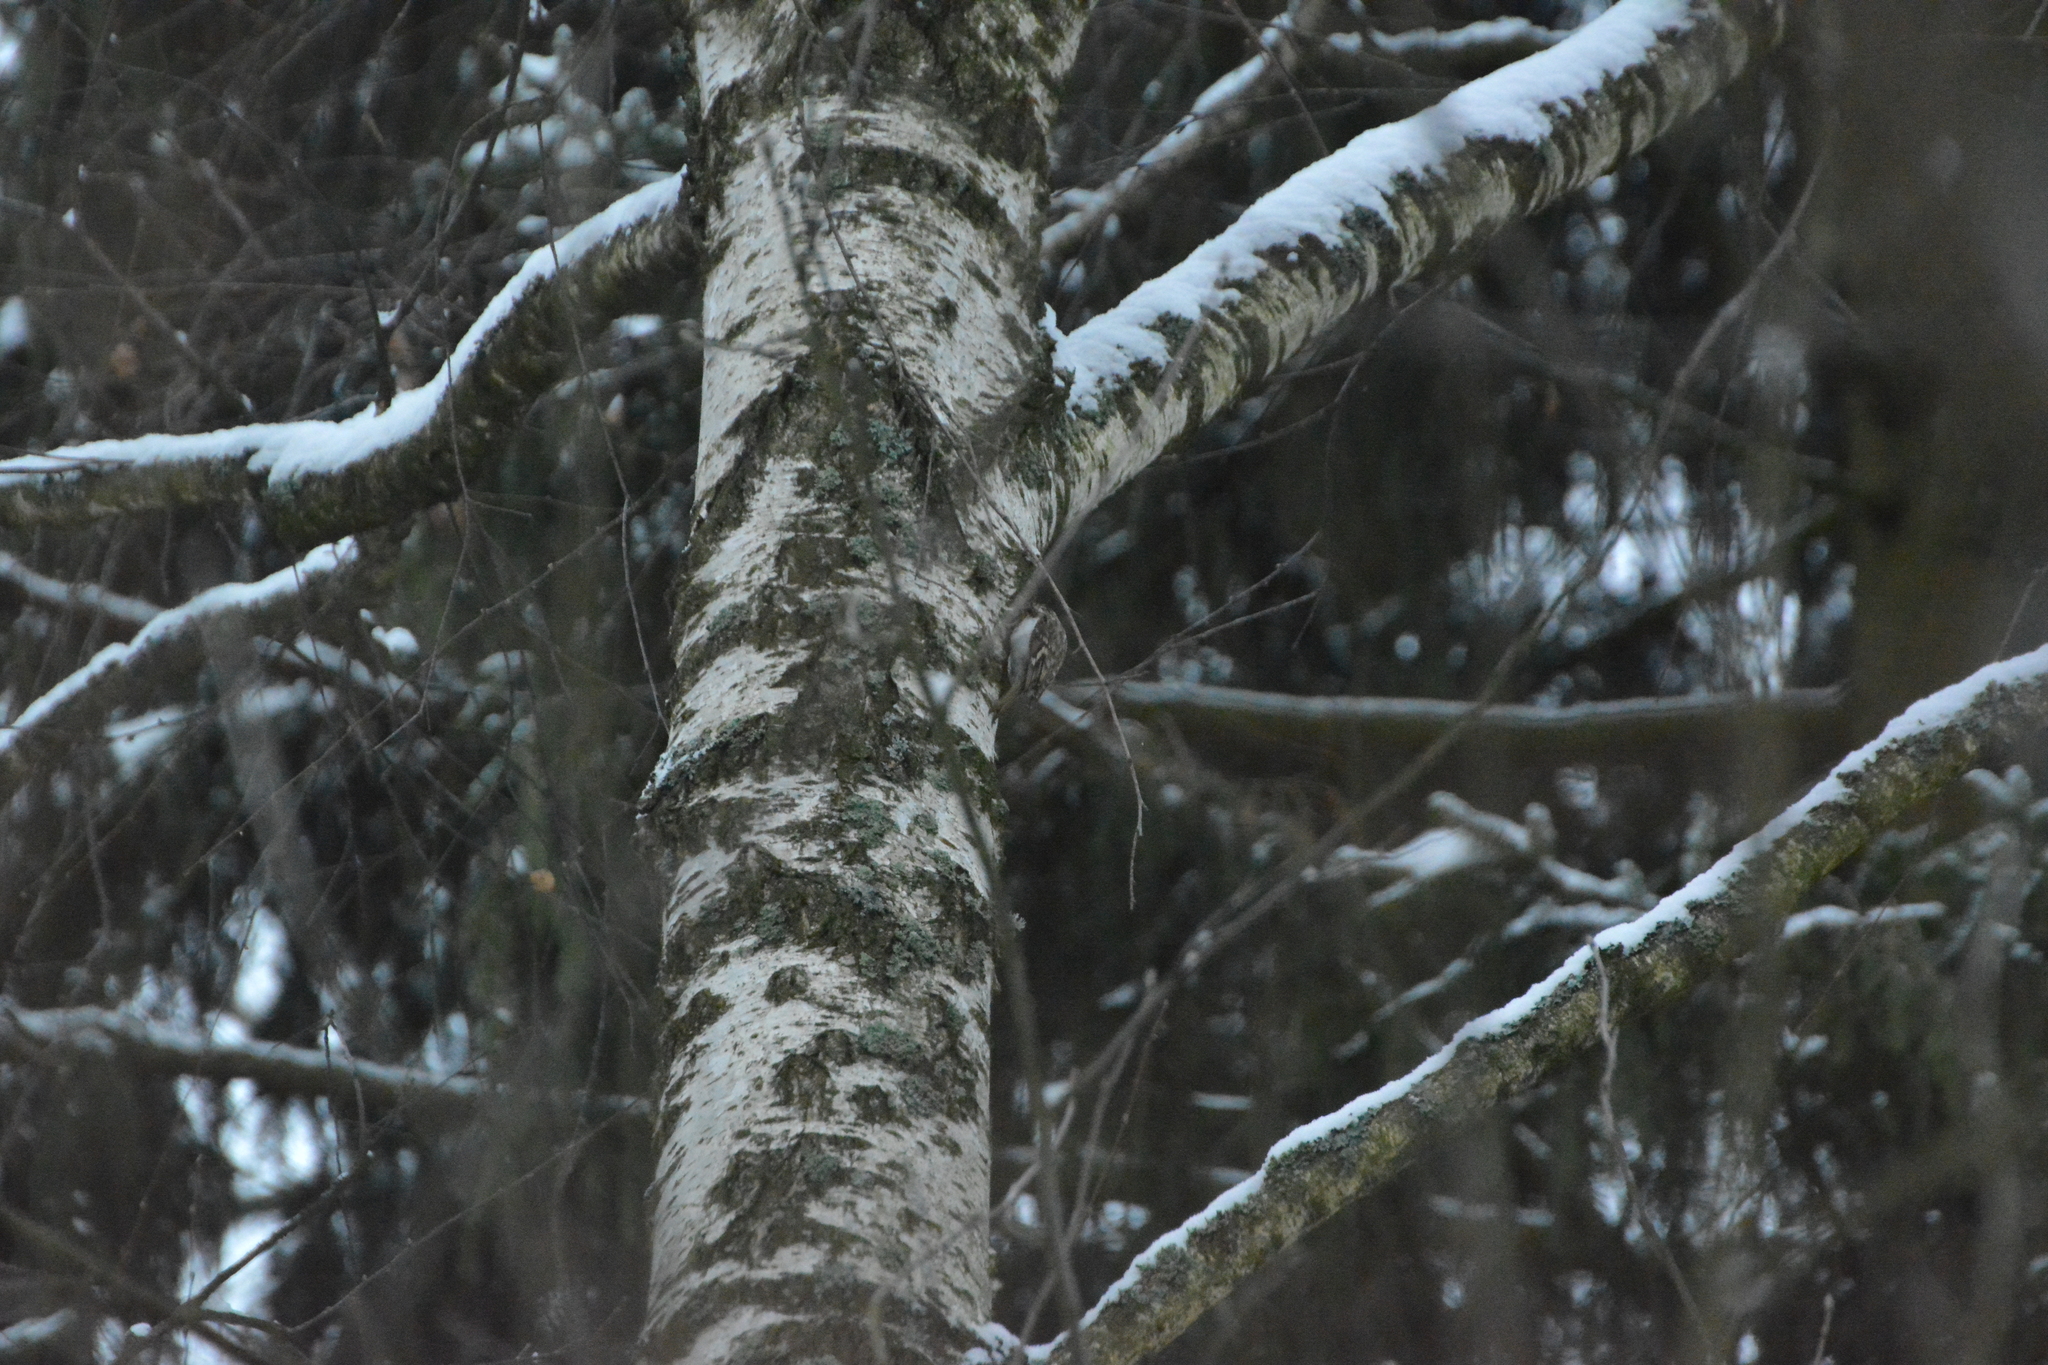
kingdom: Animalia
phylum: Chordata
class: Aves
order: Passeriformes
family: Certhiidae
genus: Certhia
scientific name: Certhia familiaris
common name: Eurasian treecreeper
